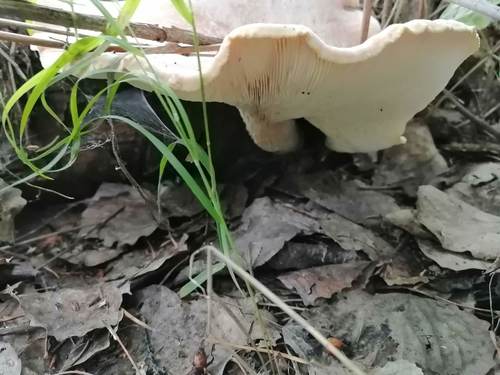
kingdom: Fungi
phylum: Basidiomycota
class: Agaricomycetes
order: Gloeophyllales
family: Gloeophyllaceae
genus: Neolentinus
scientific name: Neolentinus cyathiformis
